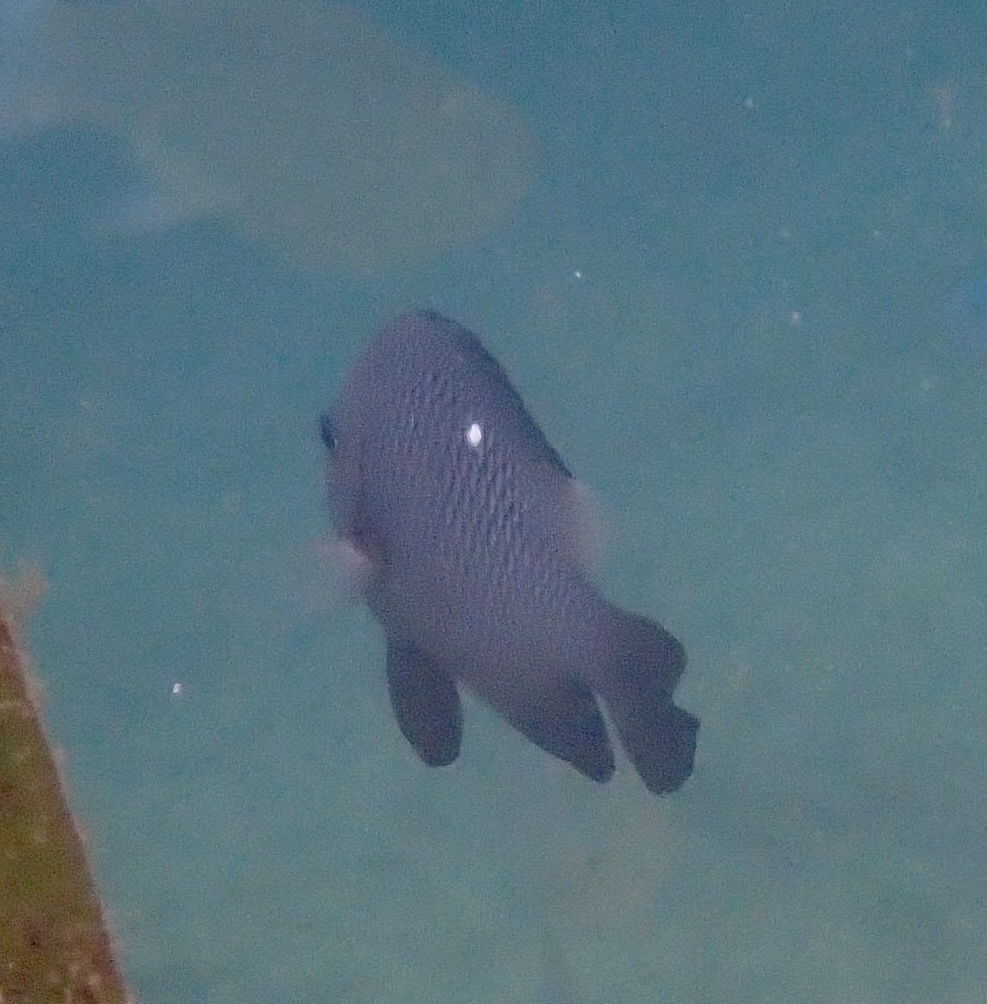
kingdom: Animalia
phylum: Chordata
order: Perciformes
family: Pomacentridae
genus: Dascyllus
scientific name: Dascyllus trimaculatus
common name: Threespot dascyllus
